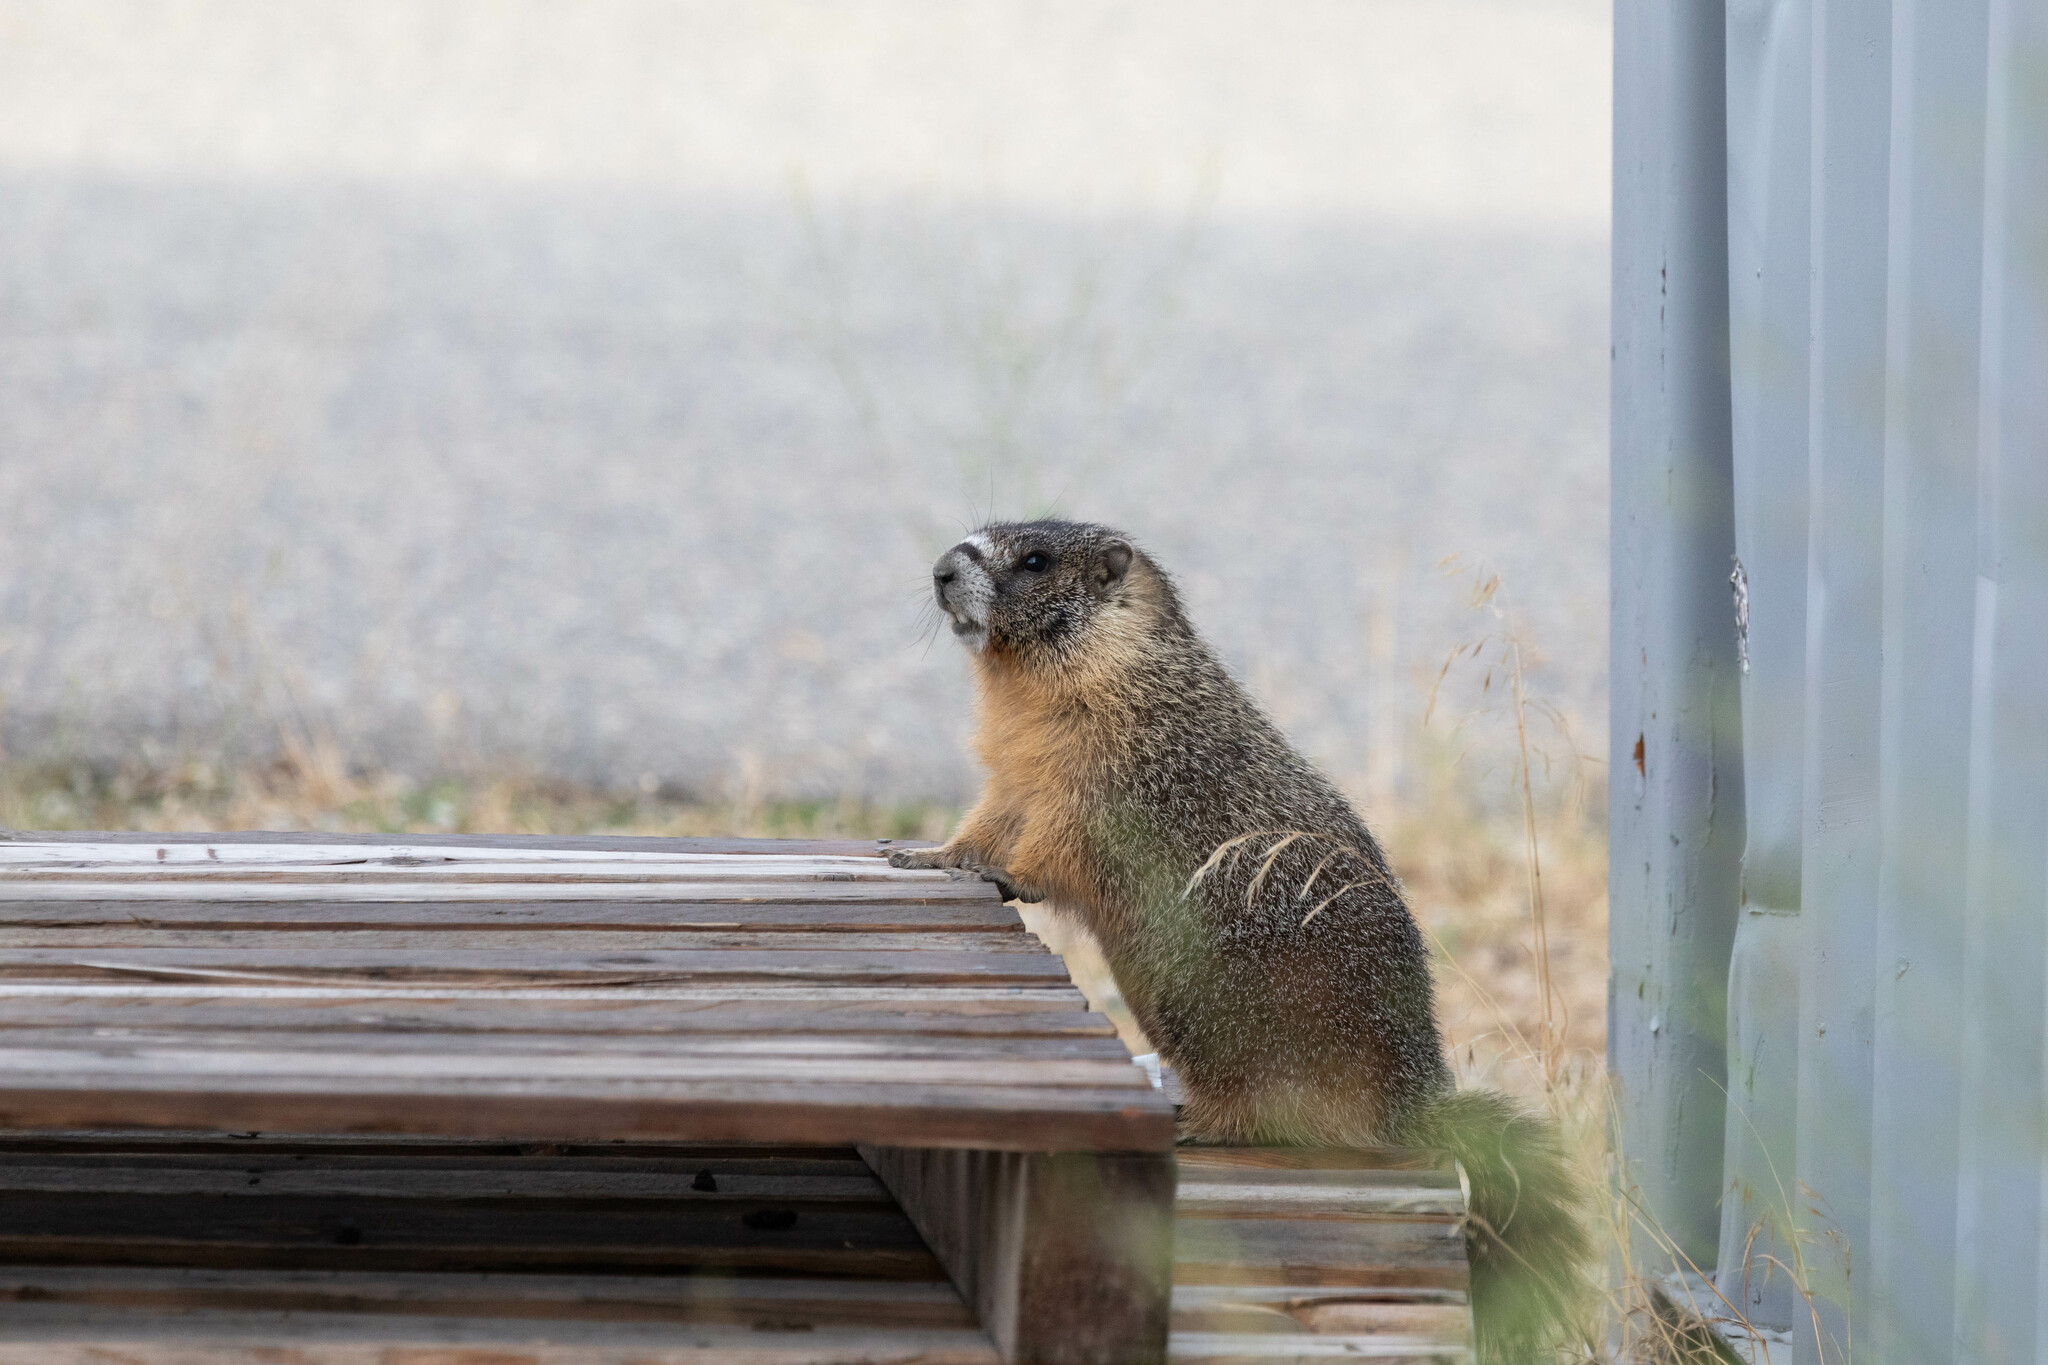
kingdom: Animalia
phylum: Chordata
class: Mammalia
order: Rodentia
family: Sciuridae
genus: Marmota
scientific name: Marmota flaviventris
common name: Yellow-bellied marmot
